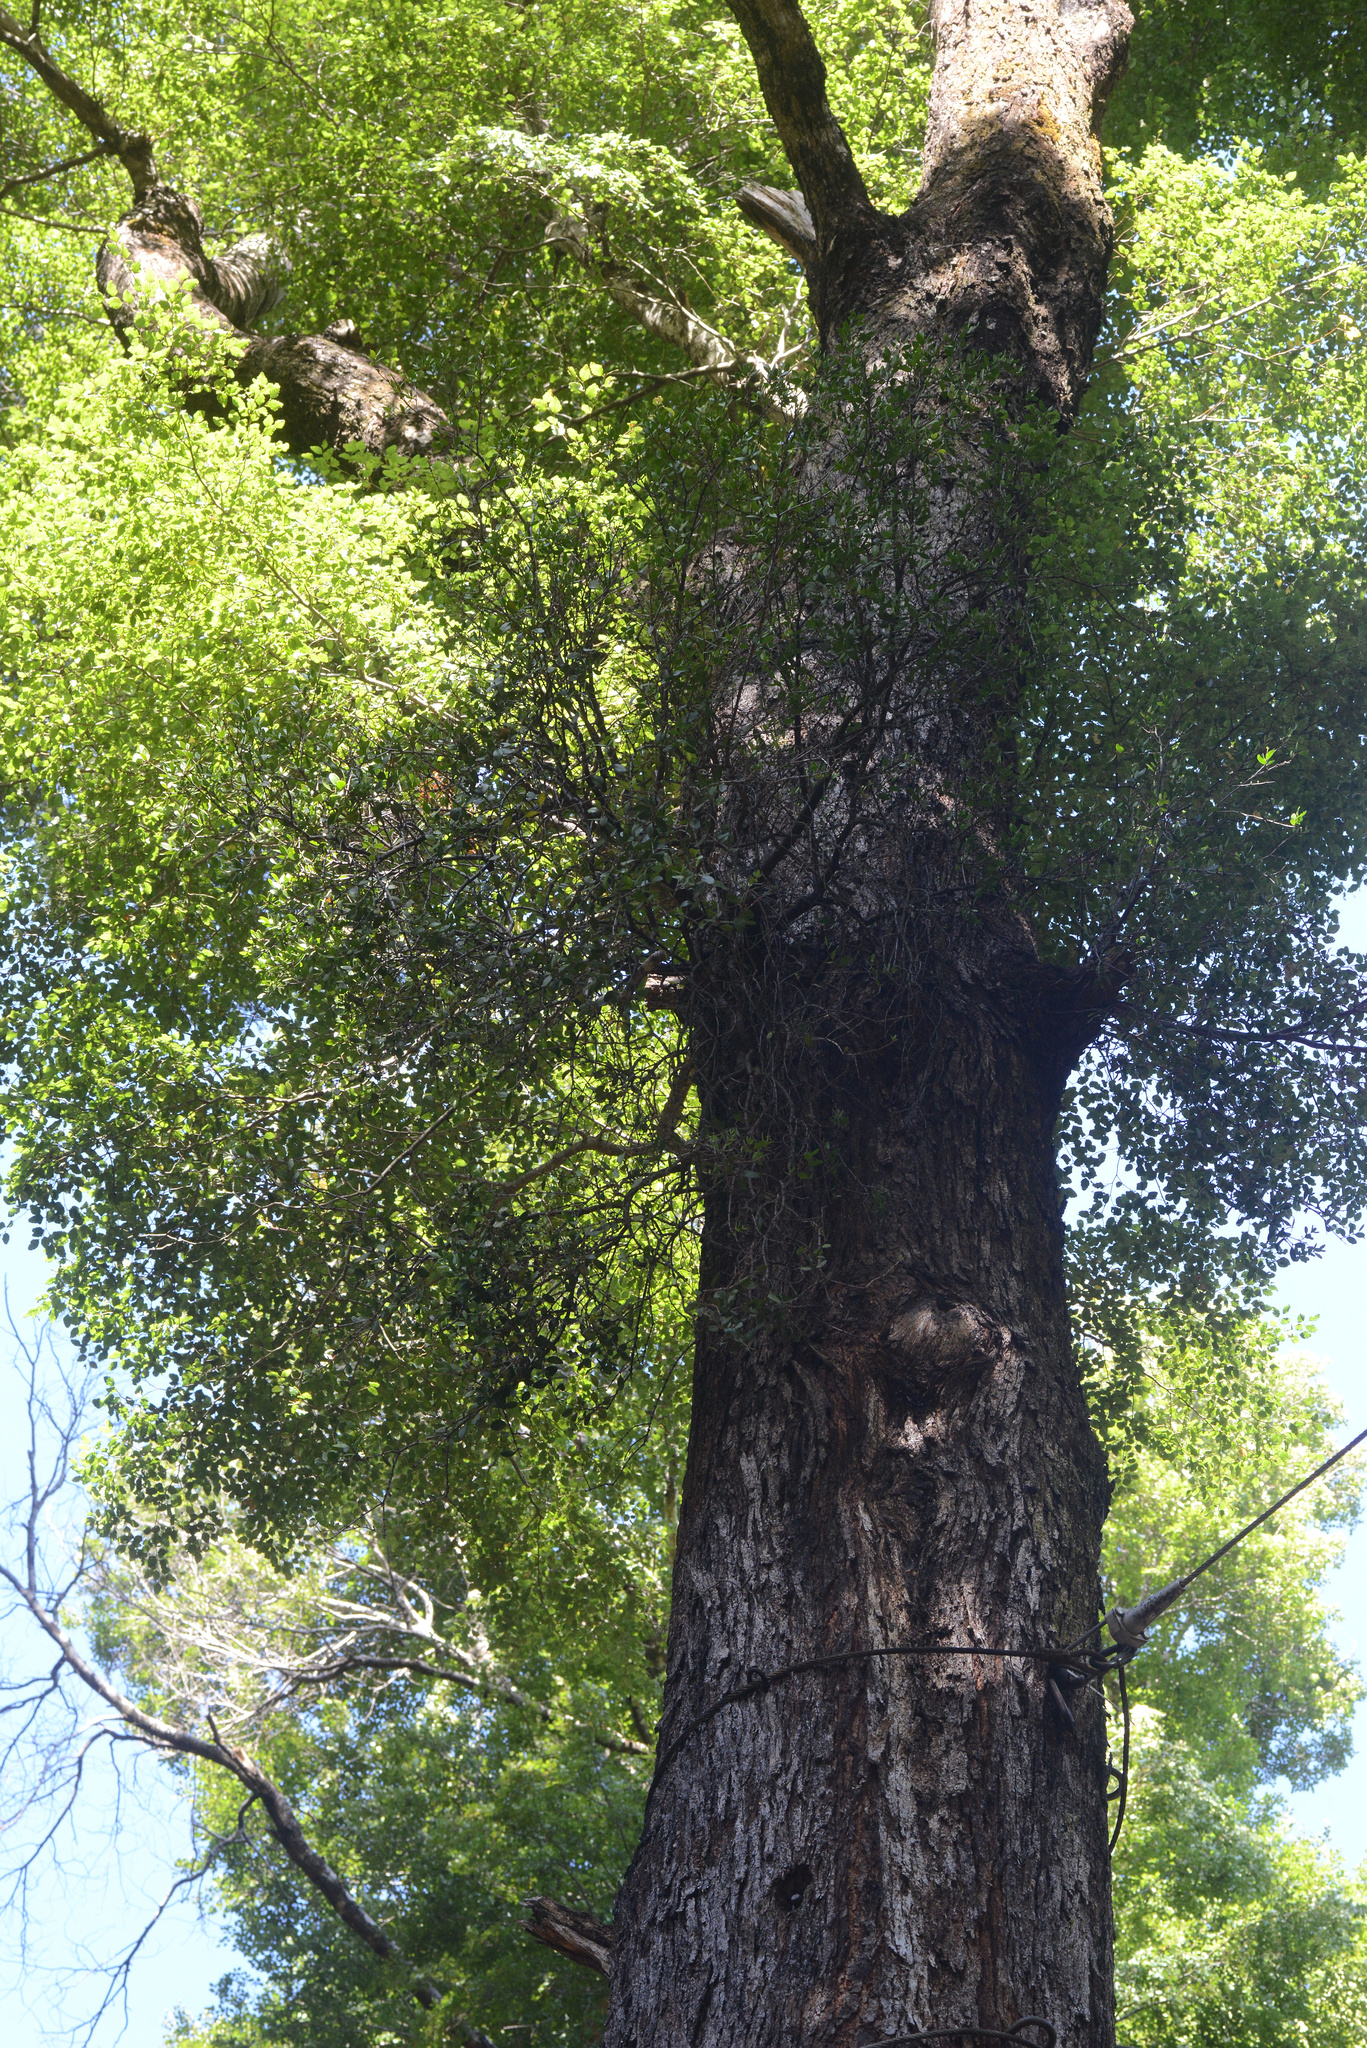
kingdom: Plantae
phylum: Tracheophyta
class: Magnoliopsida
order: Santalales
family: Loranthaceae
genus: Peraxilla
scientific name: Peraxilla tetrapetala
